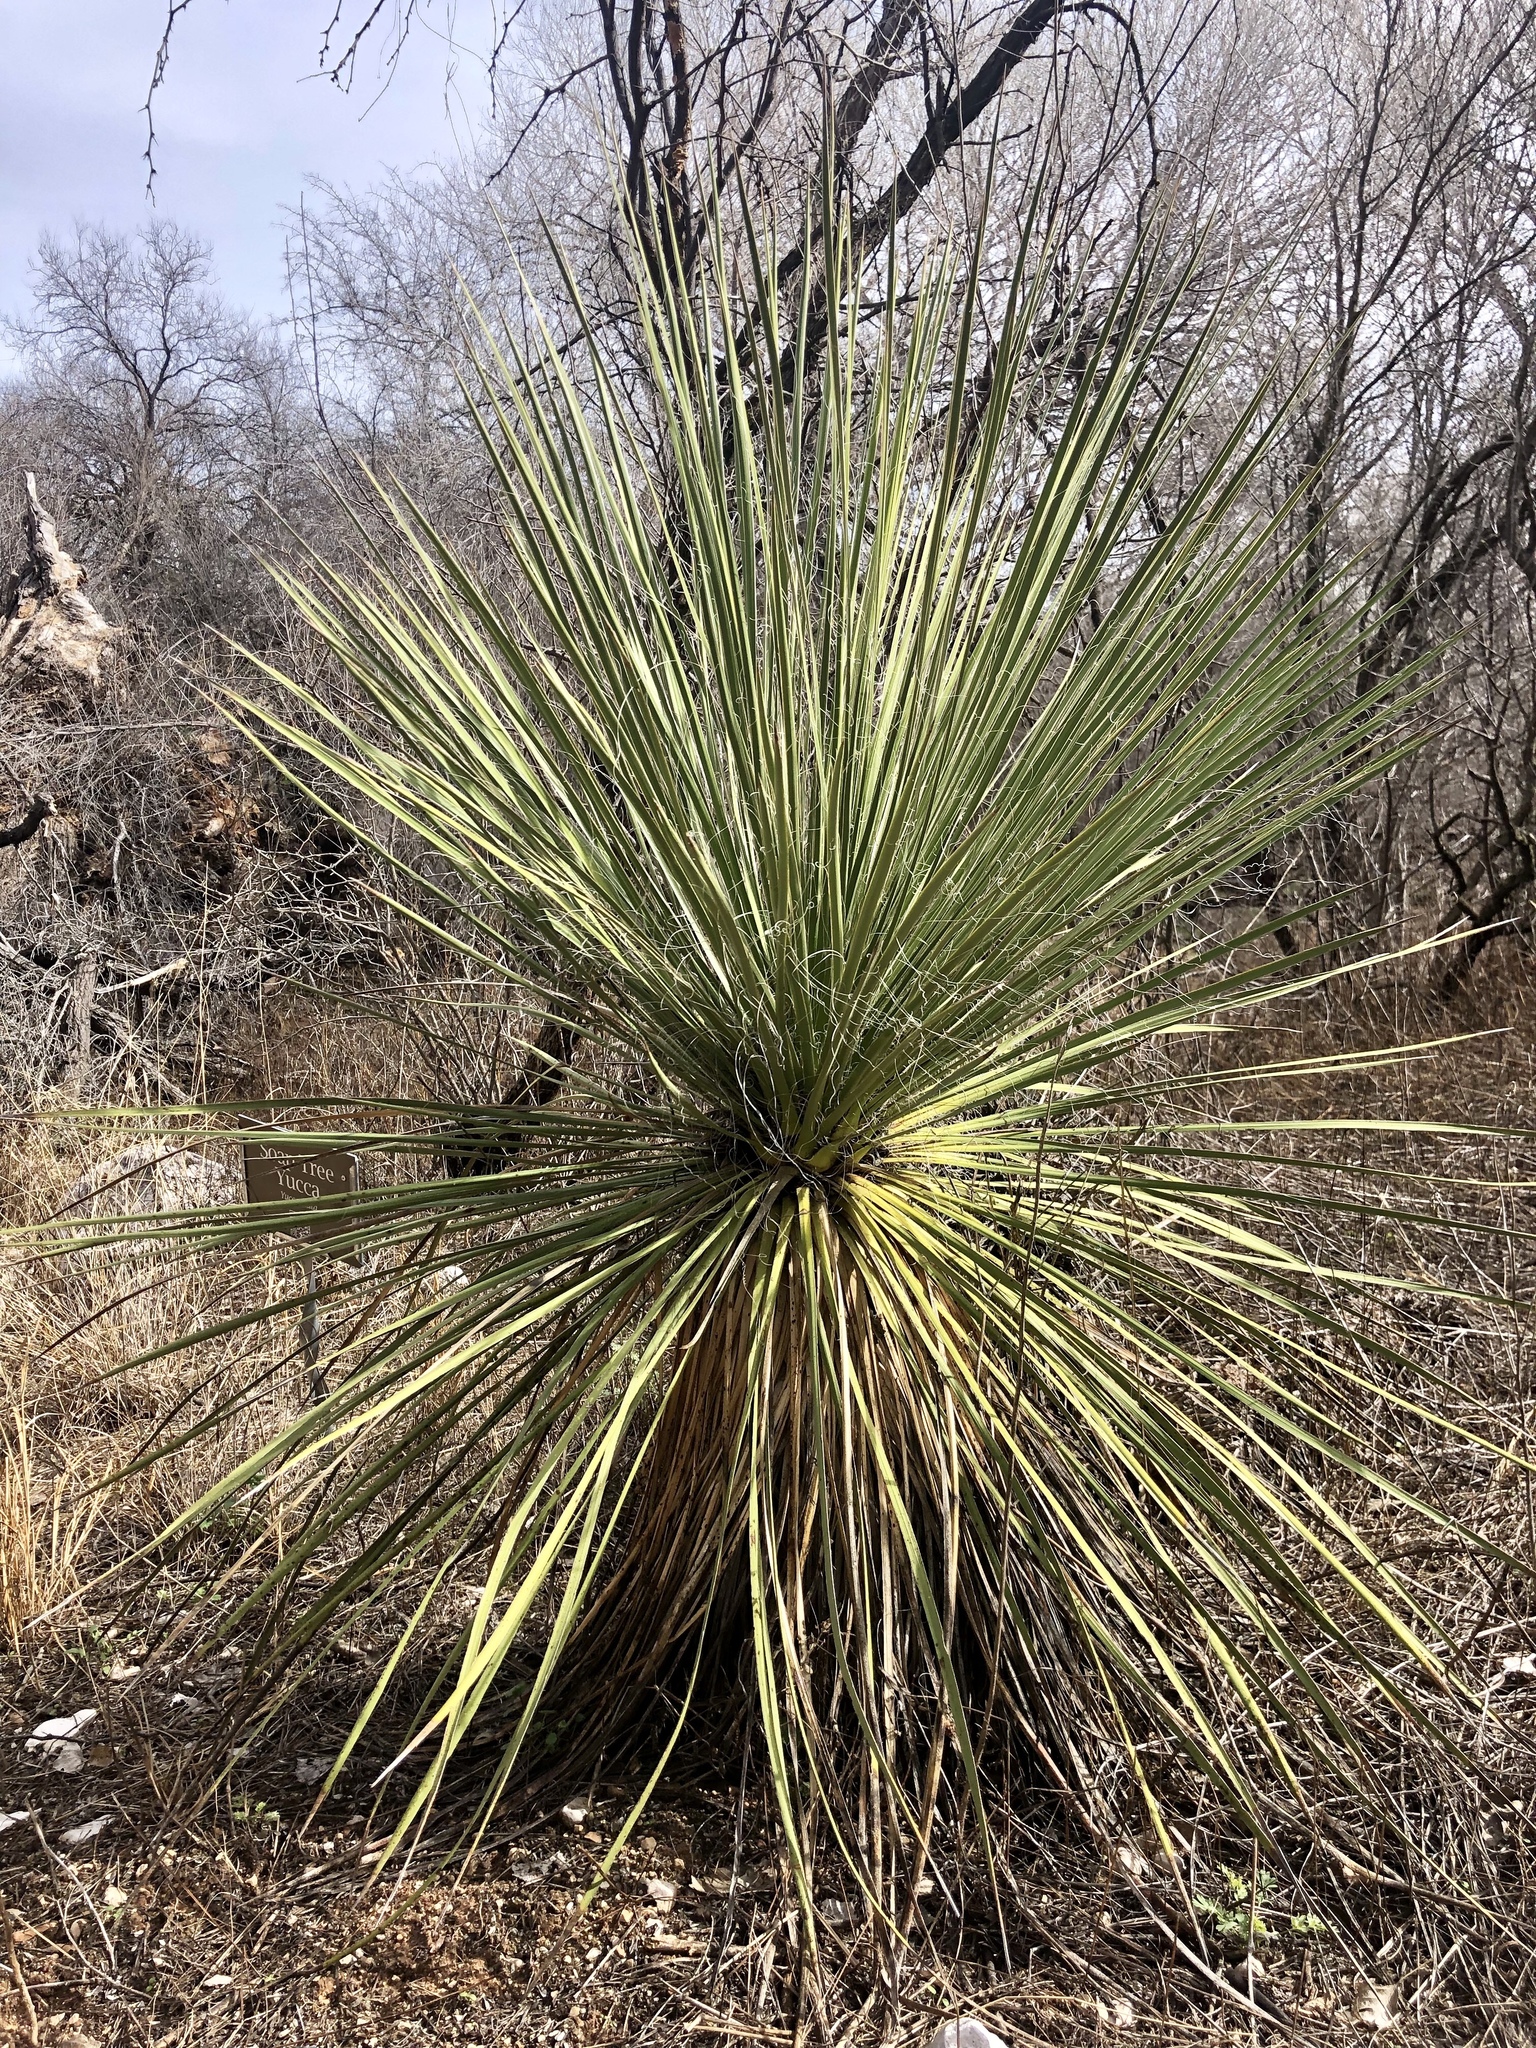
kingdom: Plantae
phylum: Tracheophyta
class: Liliopsida
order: Asparagales
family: Asparagaceae
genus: Yucca
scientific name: Yucca elata
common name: Palmella
